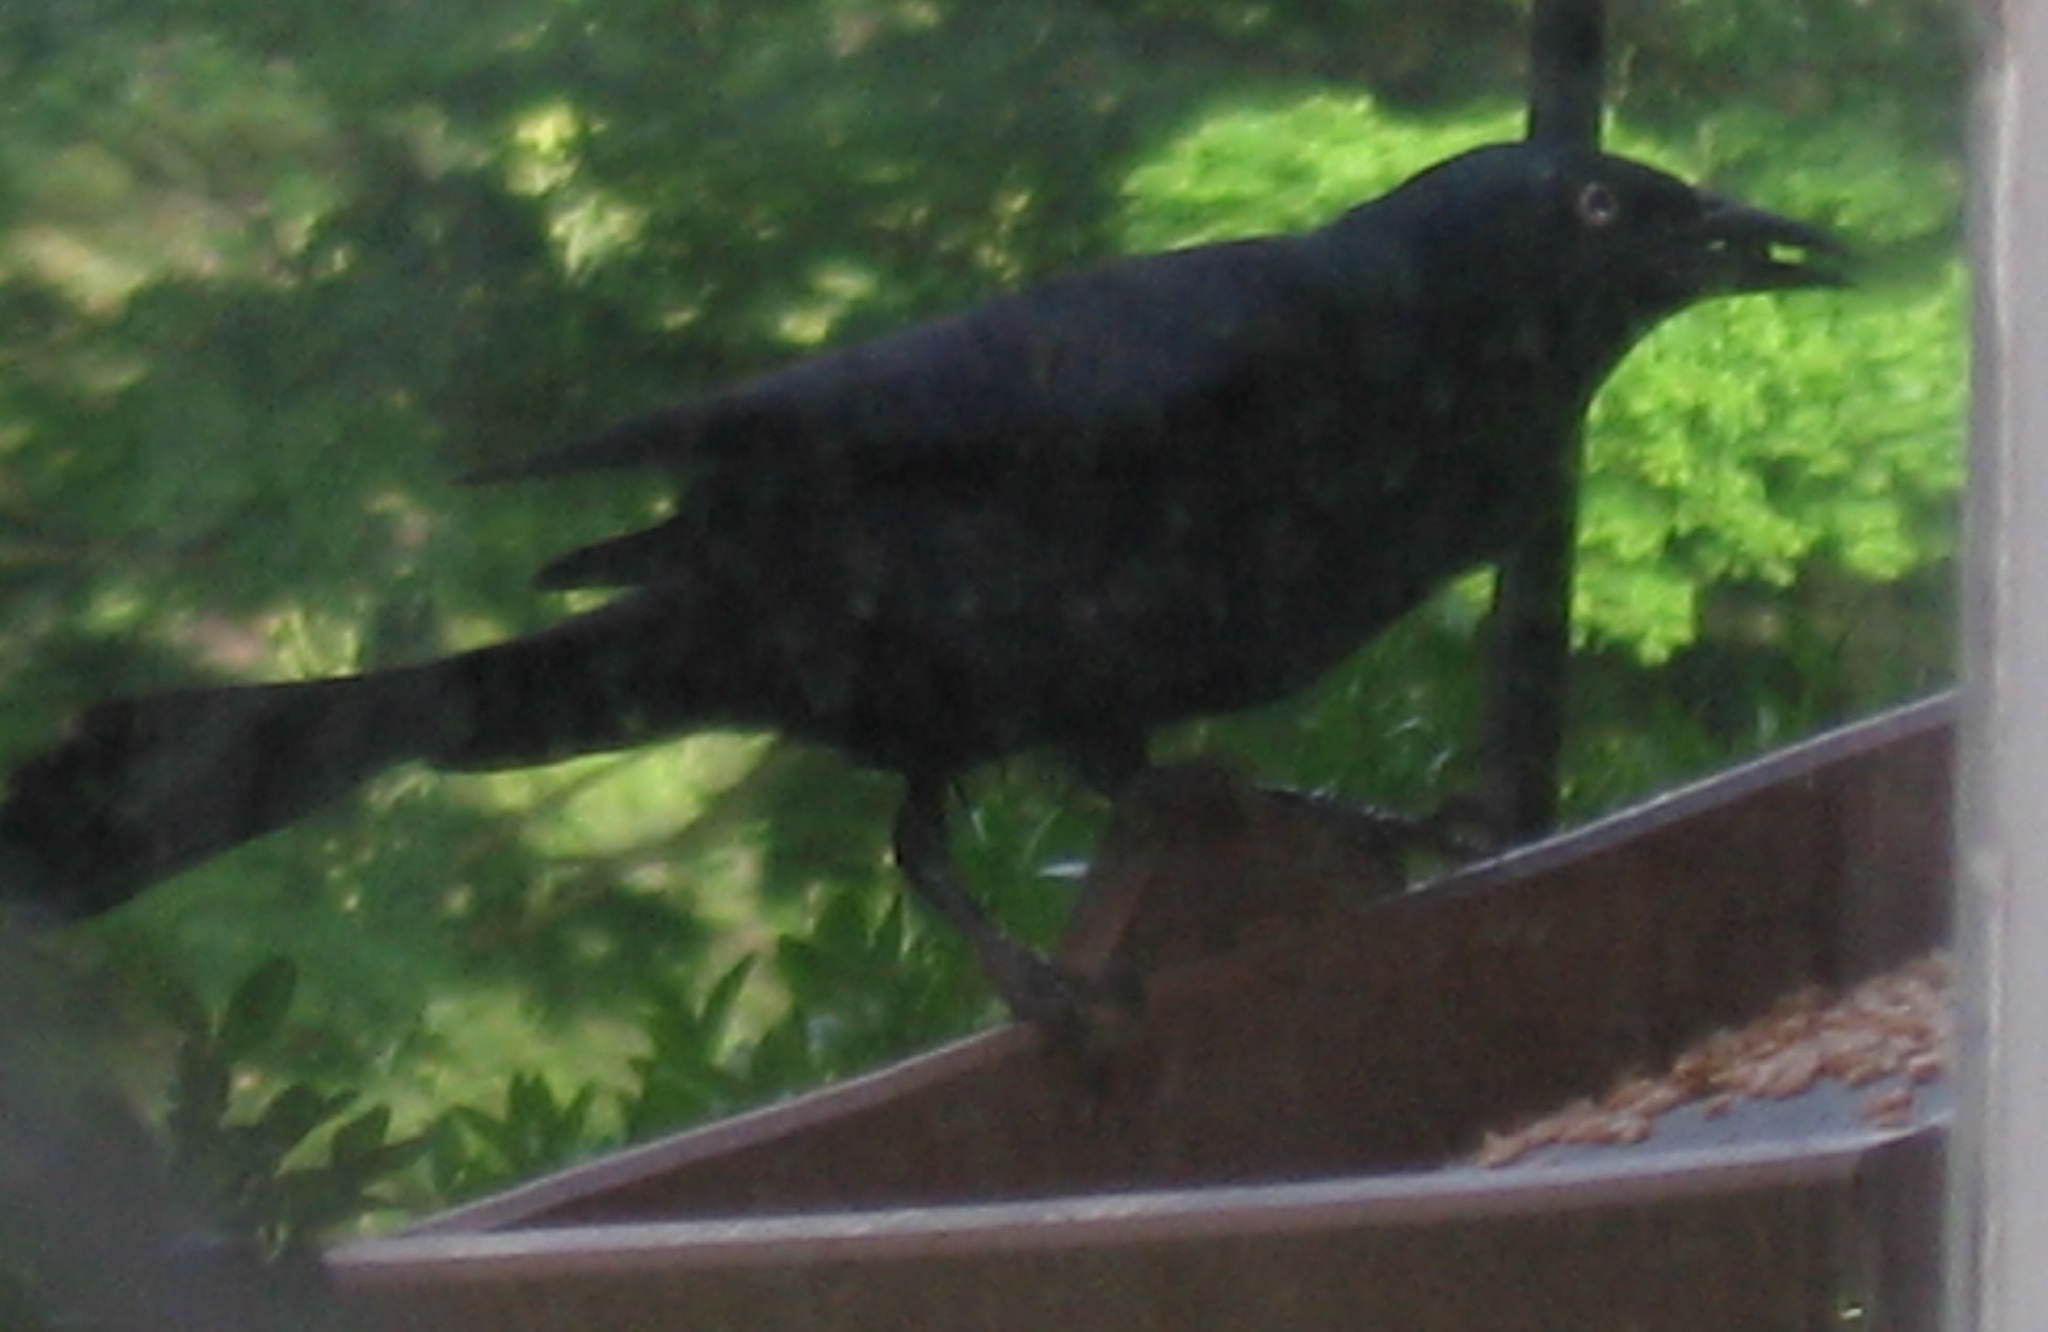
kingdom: Animalia
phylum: Chordata
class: Aves
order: Passeriformes
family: Icteridae
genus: Quiscalus
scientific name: Quiscalus quiscula
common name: Common grackle
